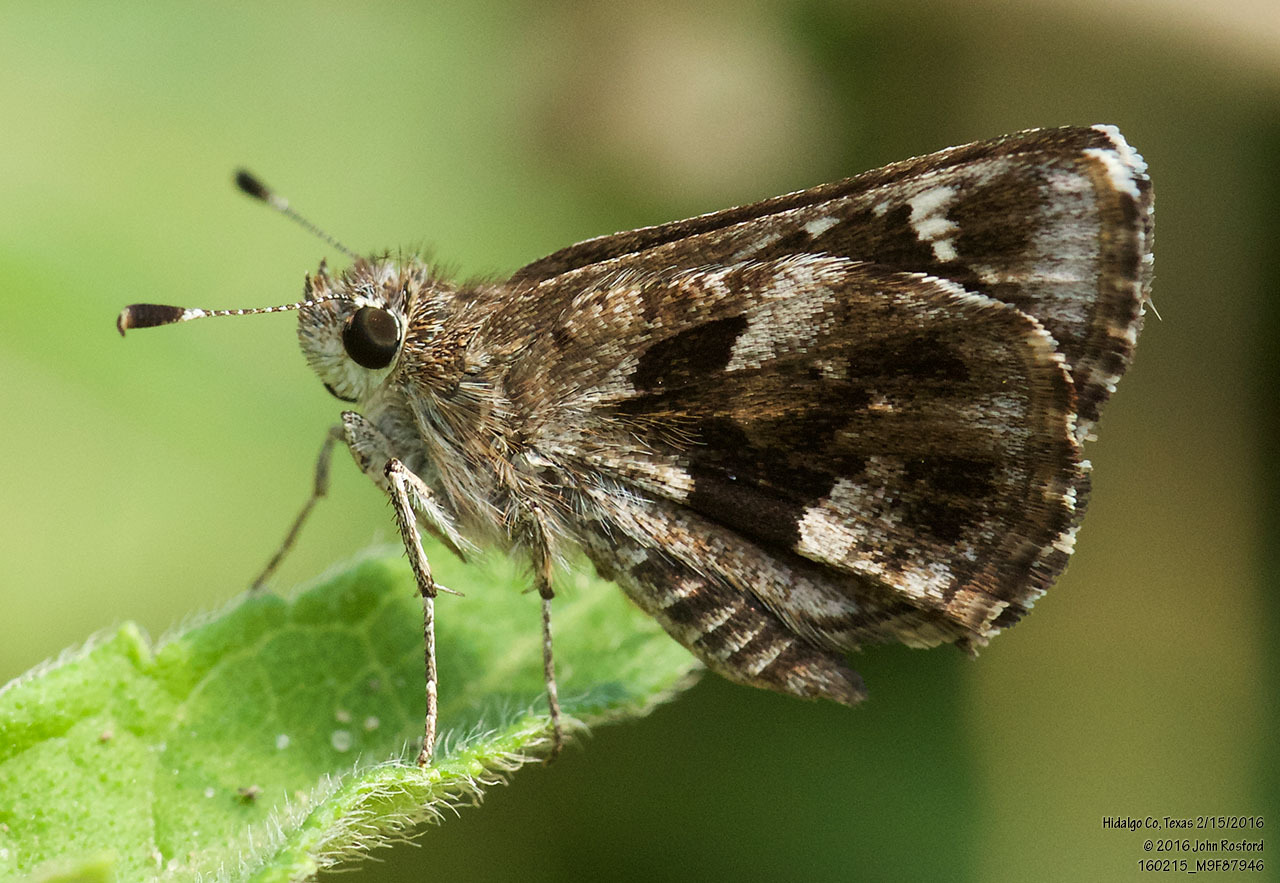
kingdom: Animalia
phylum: Arthropoda
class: Insecta
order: Lepidoptera
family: Hesperiidae
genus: Mastor
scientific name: Mastor nysa
